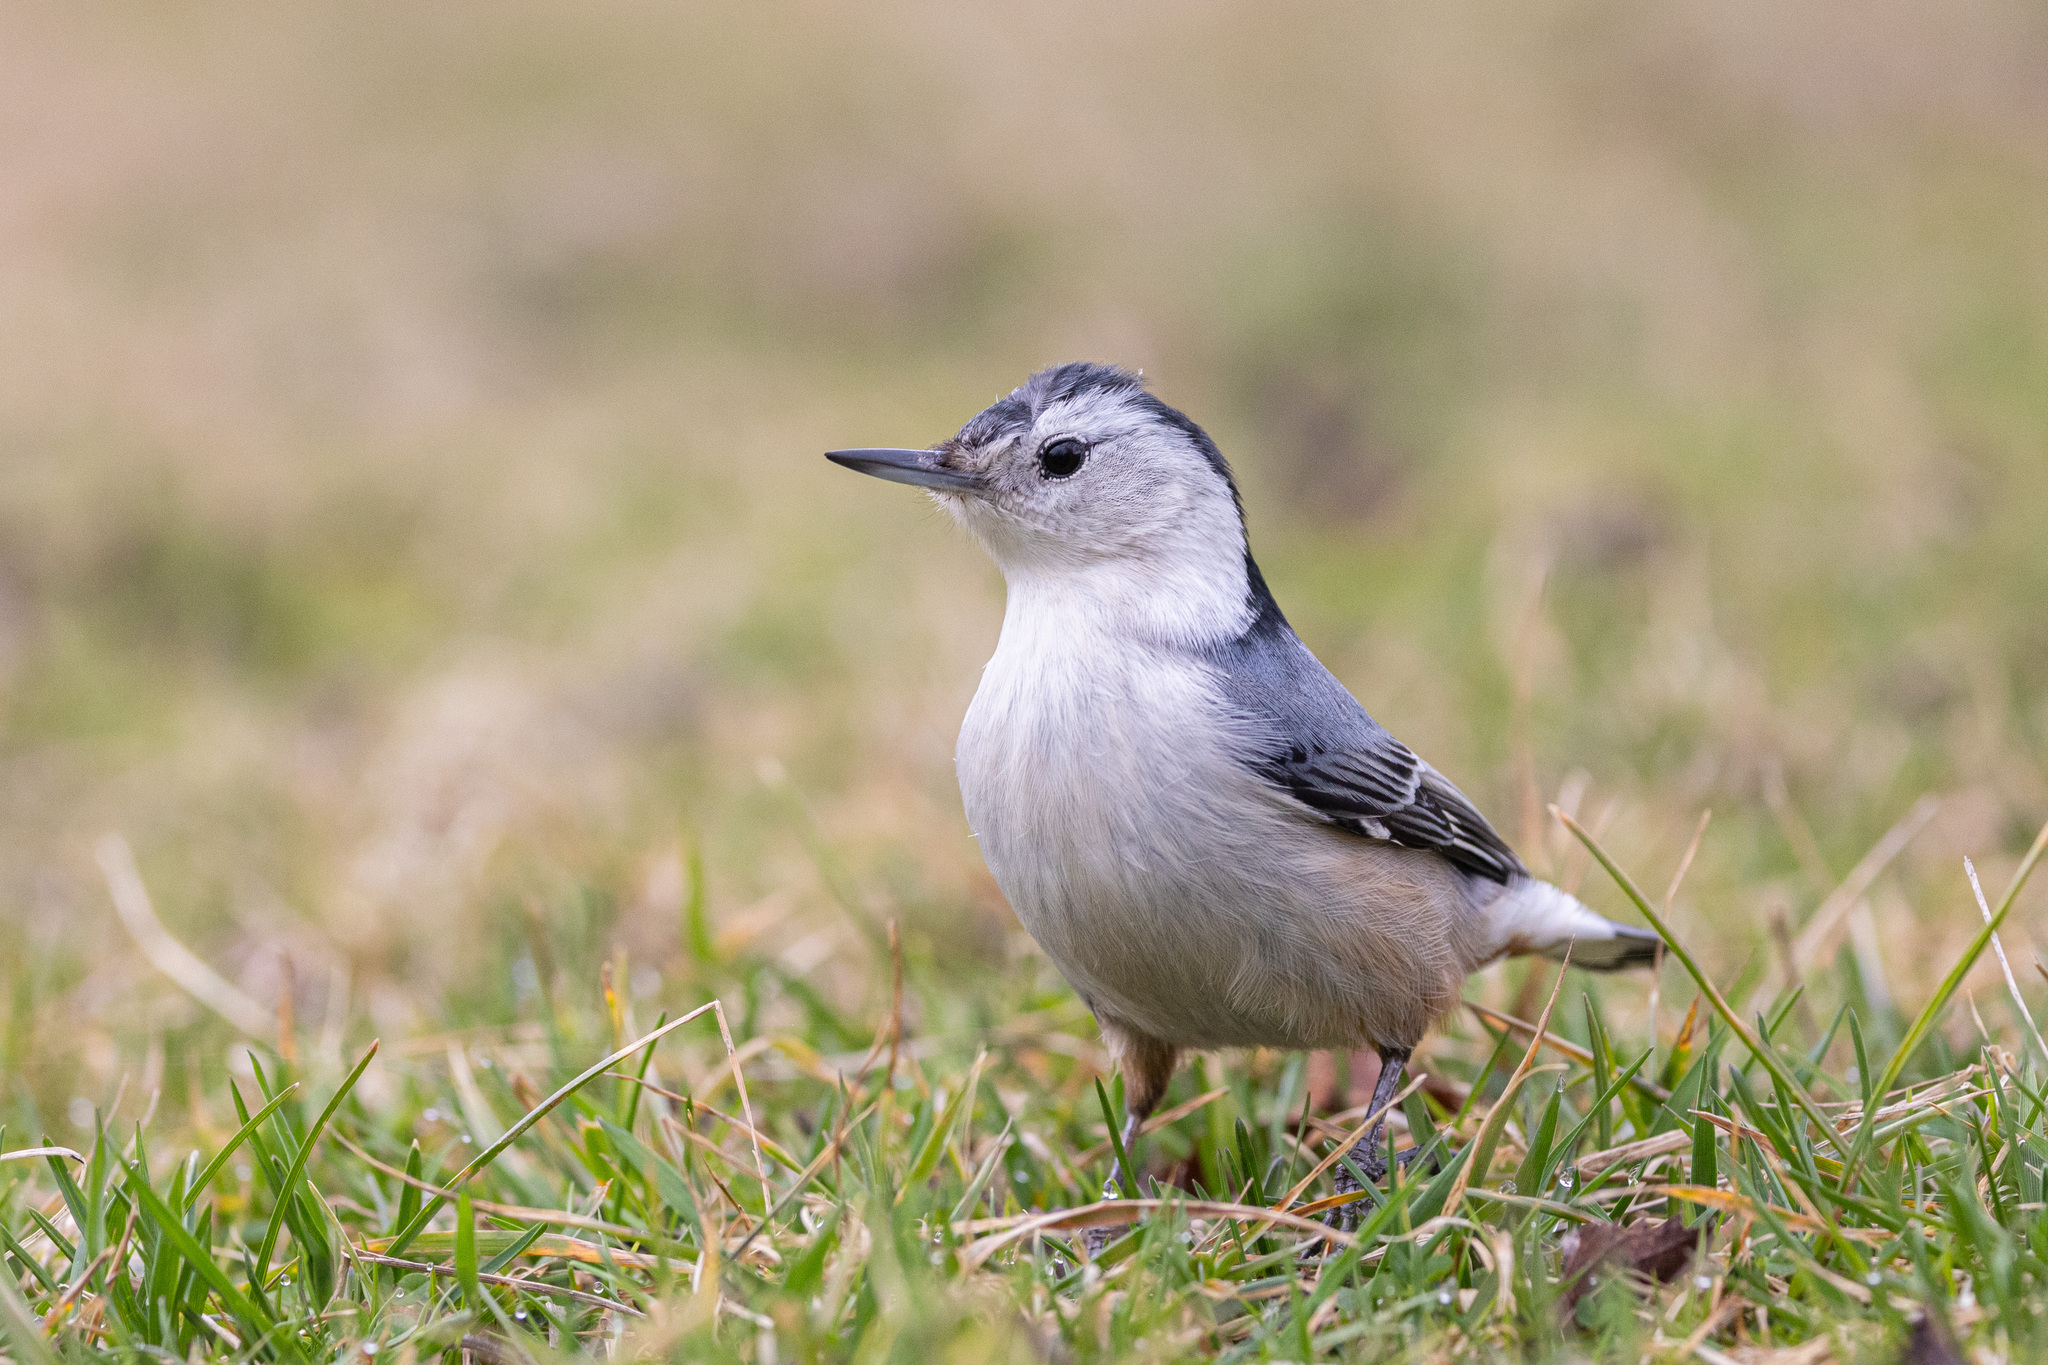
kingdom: Animalia
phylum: Chordata
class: Aves
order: Passeriformes
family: Sittidae
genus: Sitta
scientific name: Sitta carolinensis
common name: White-breasted nuthatch
